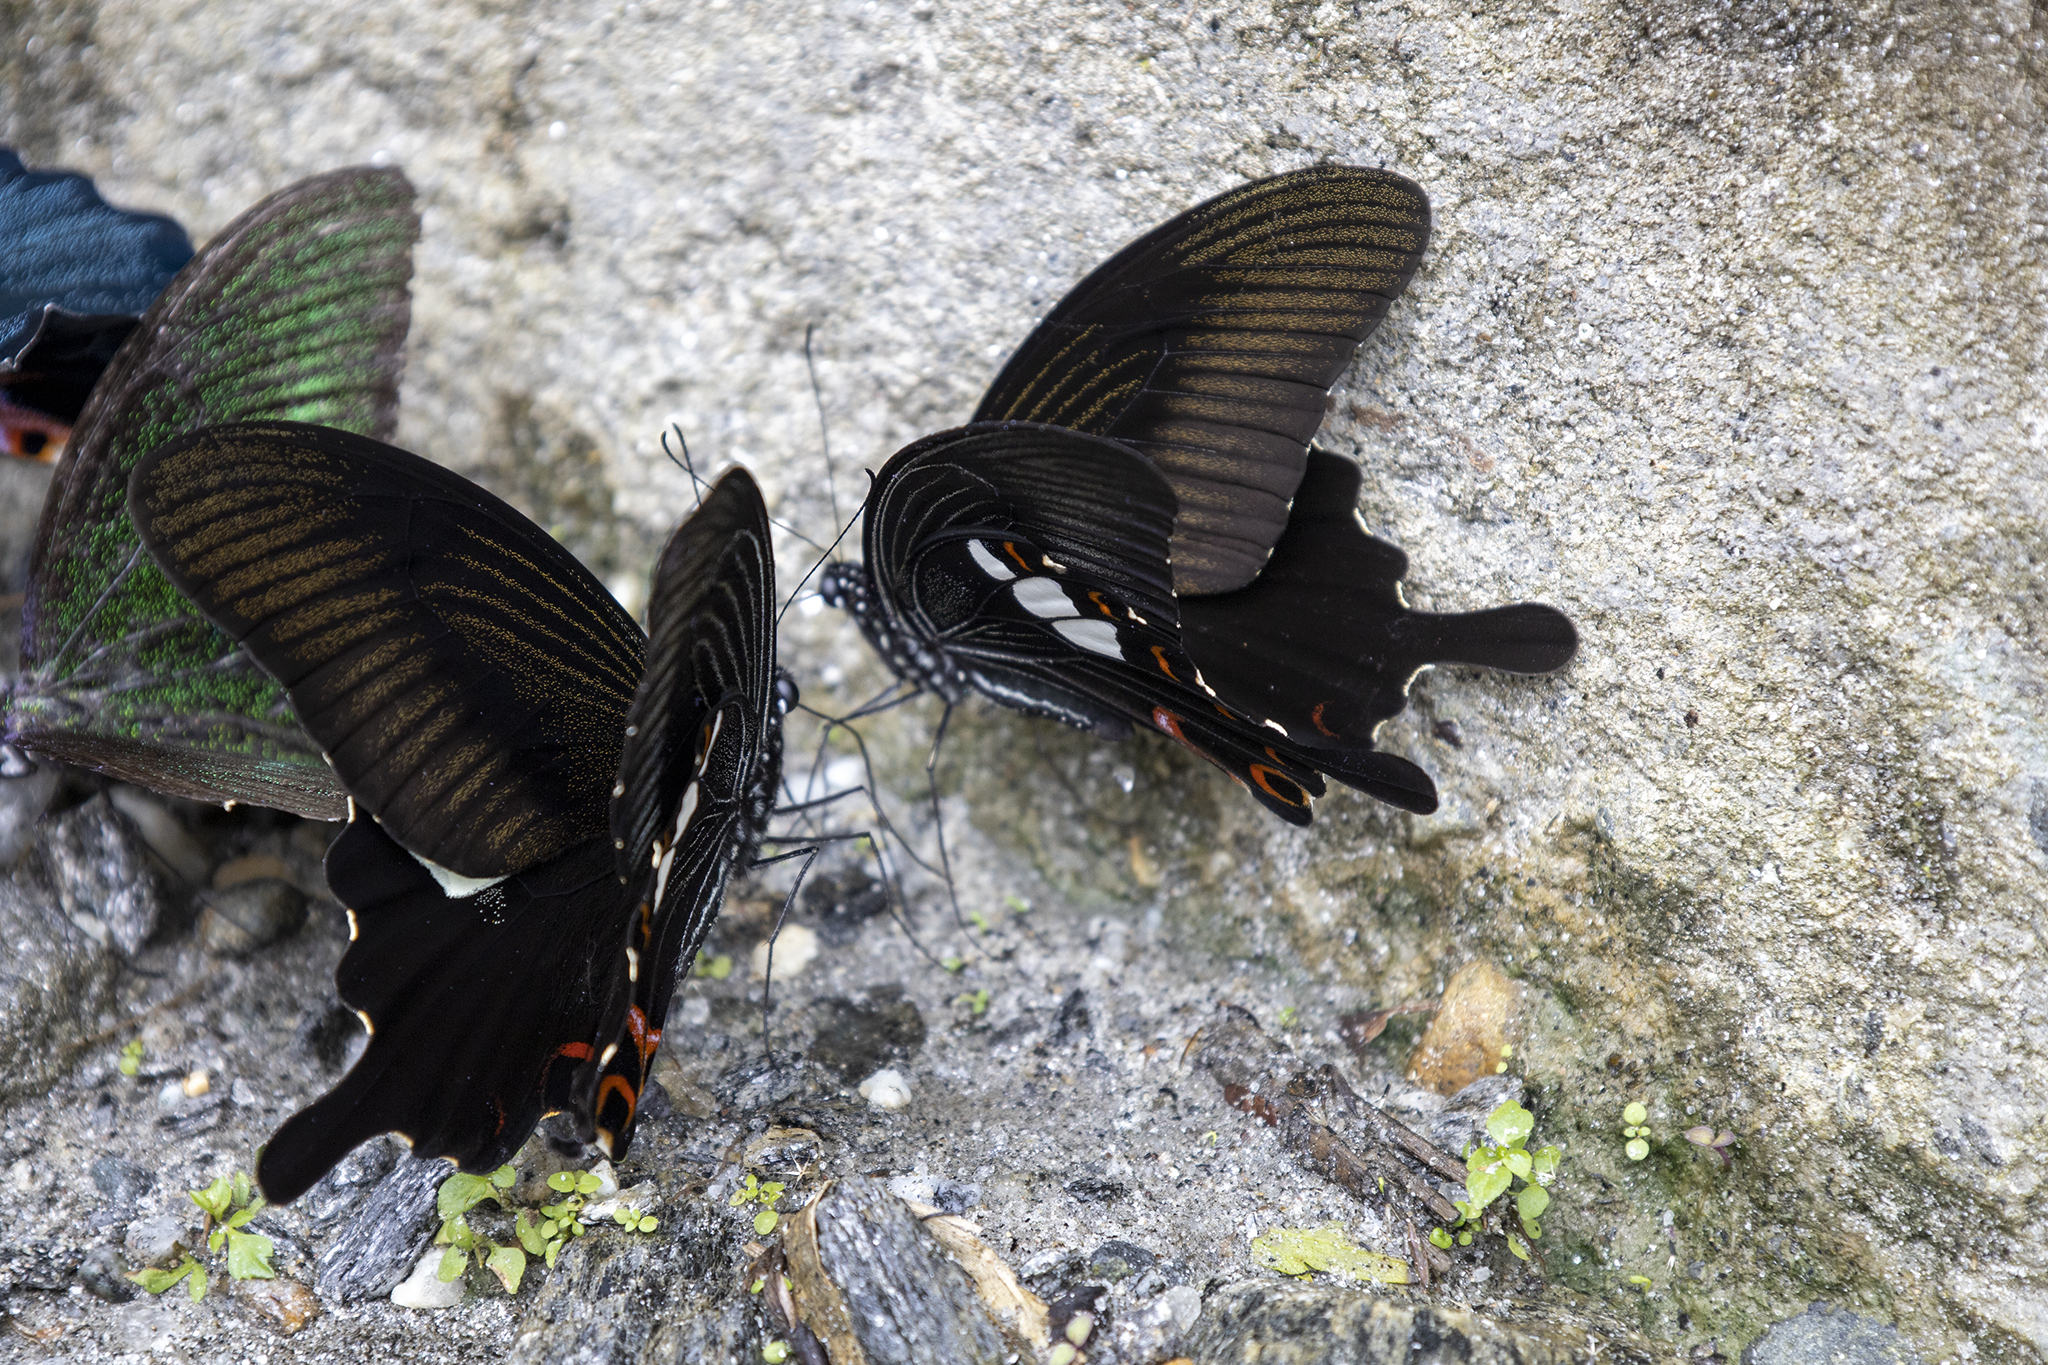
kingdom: Animalia
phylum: Arthropoda
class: Insecta
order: Lepidoptera
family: Papilionidae
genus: Papilio
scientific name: Papilio helenus
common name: Red helen
